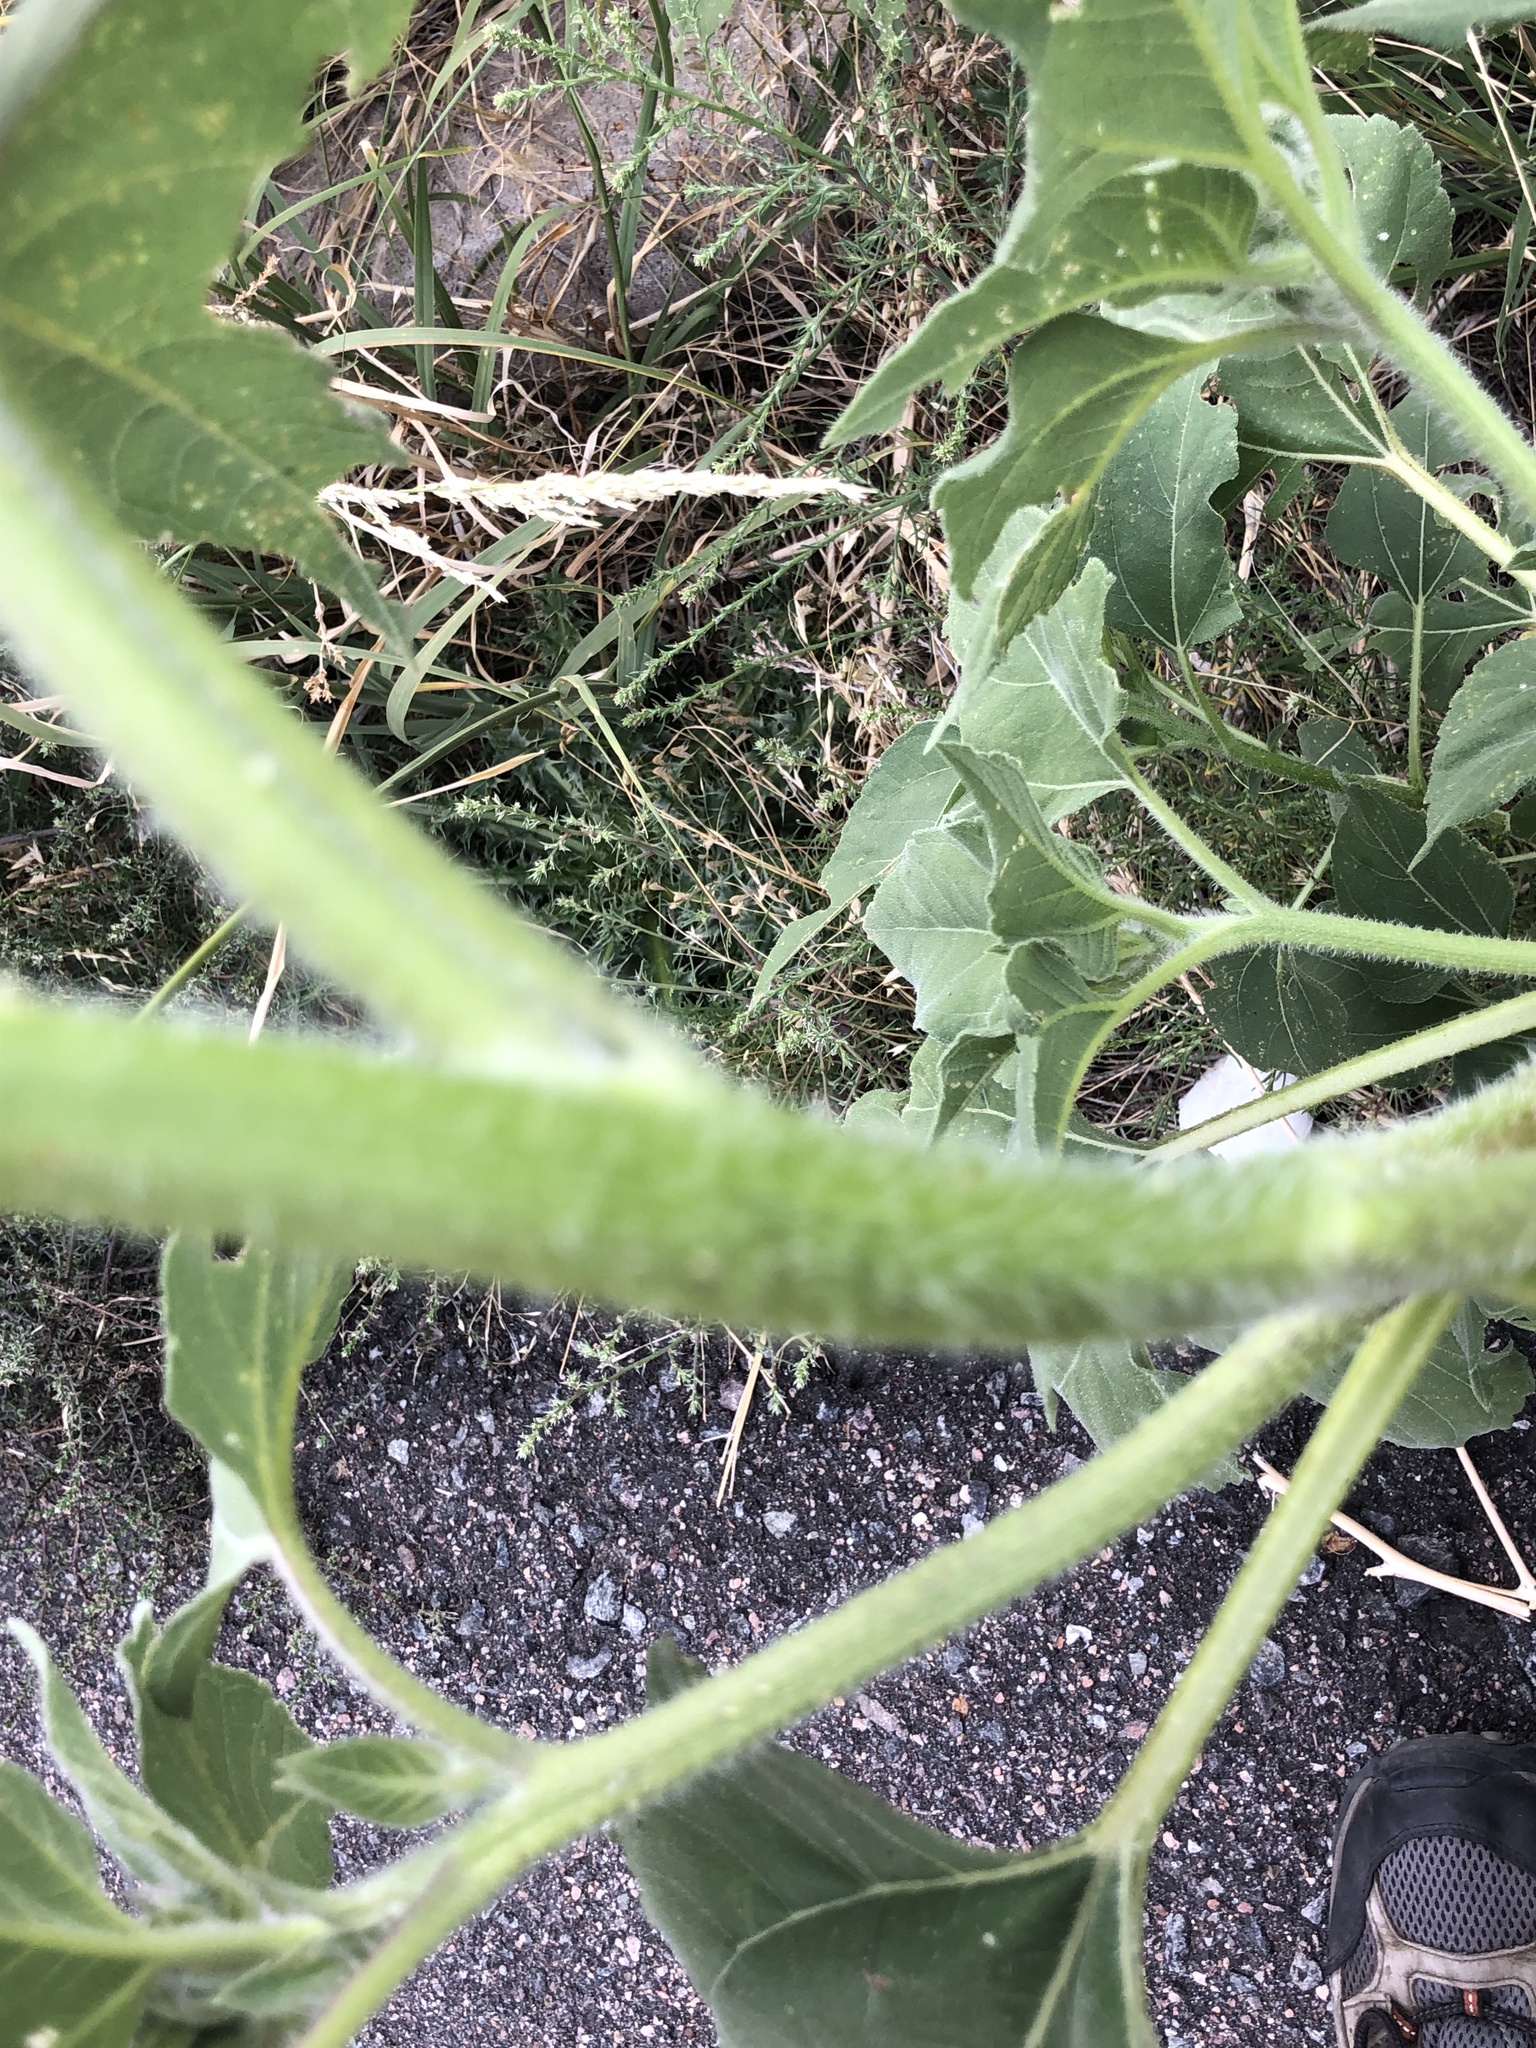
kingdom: Plantae
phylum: Tracheophyta
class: Magnoliopsida
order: Asterales
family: Asteraceae
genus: Helianthus
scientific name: Helianthus annuus
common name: Sunflower
